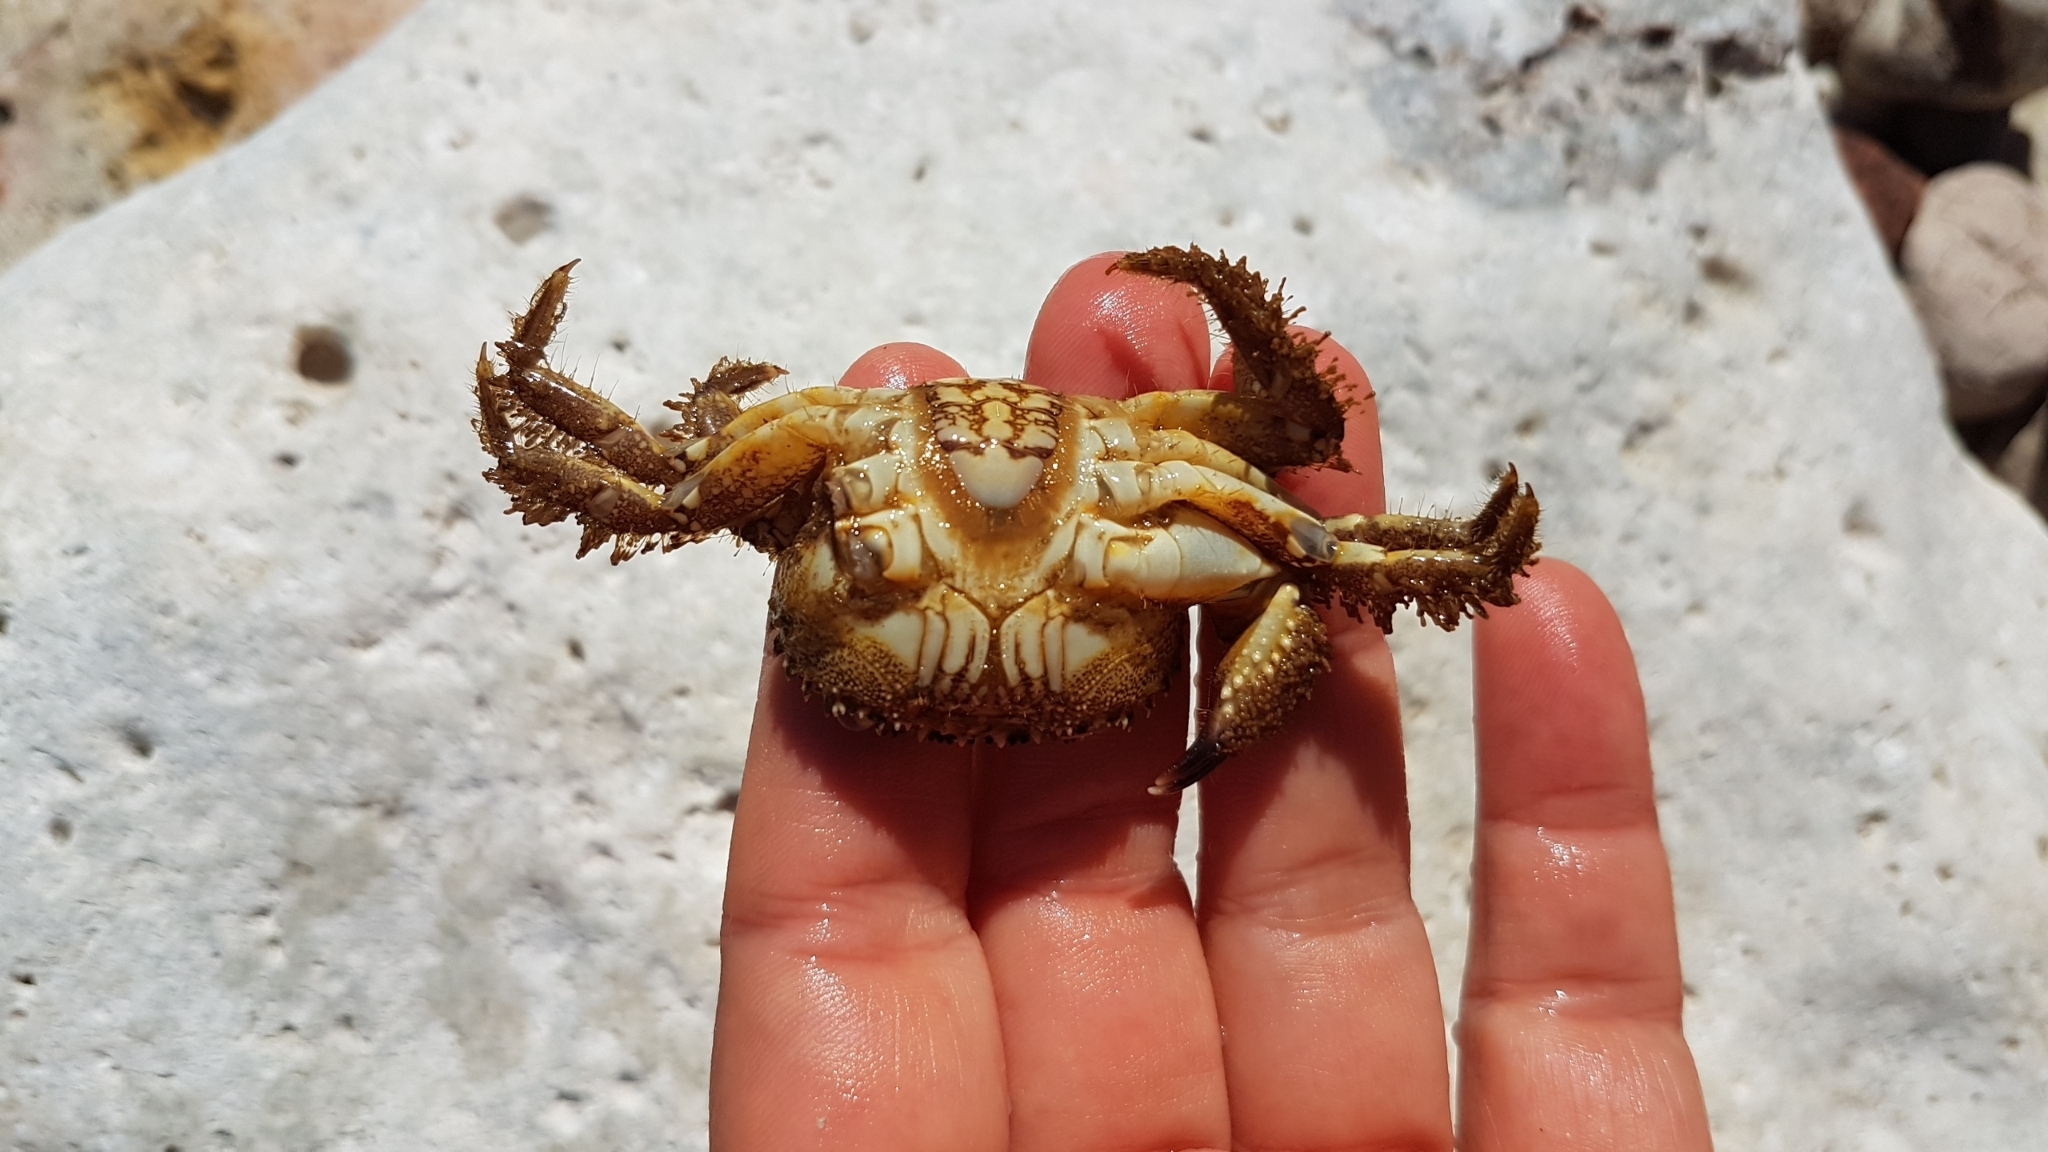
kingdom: Animalia
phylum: Arthropoda
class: Malacostraca
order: Decapoda
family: Eriphiidae
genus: Eriphia
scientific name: Eriphia verrucosa
